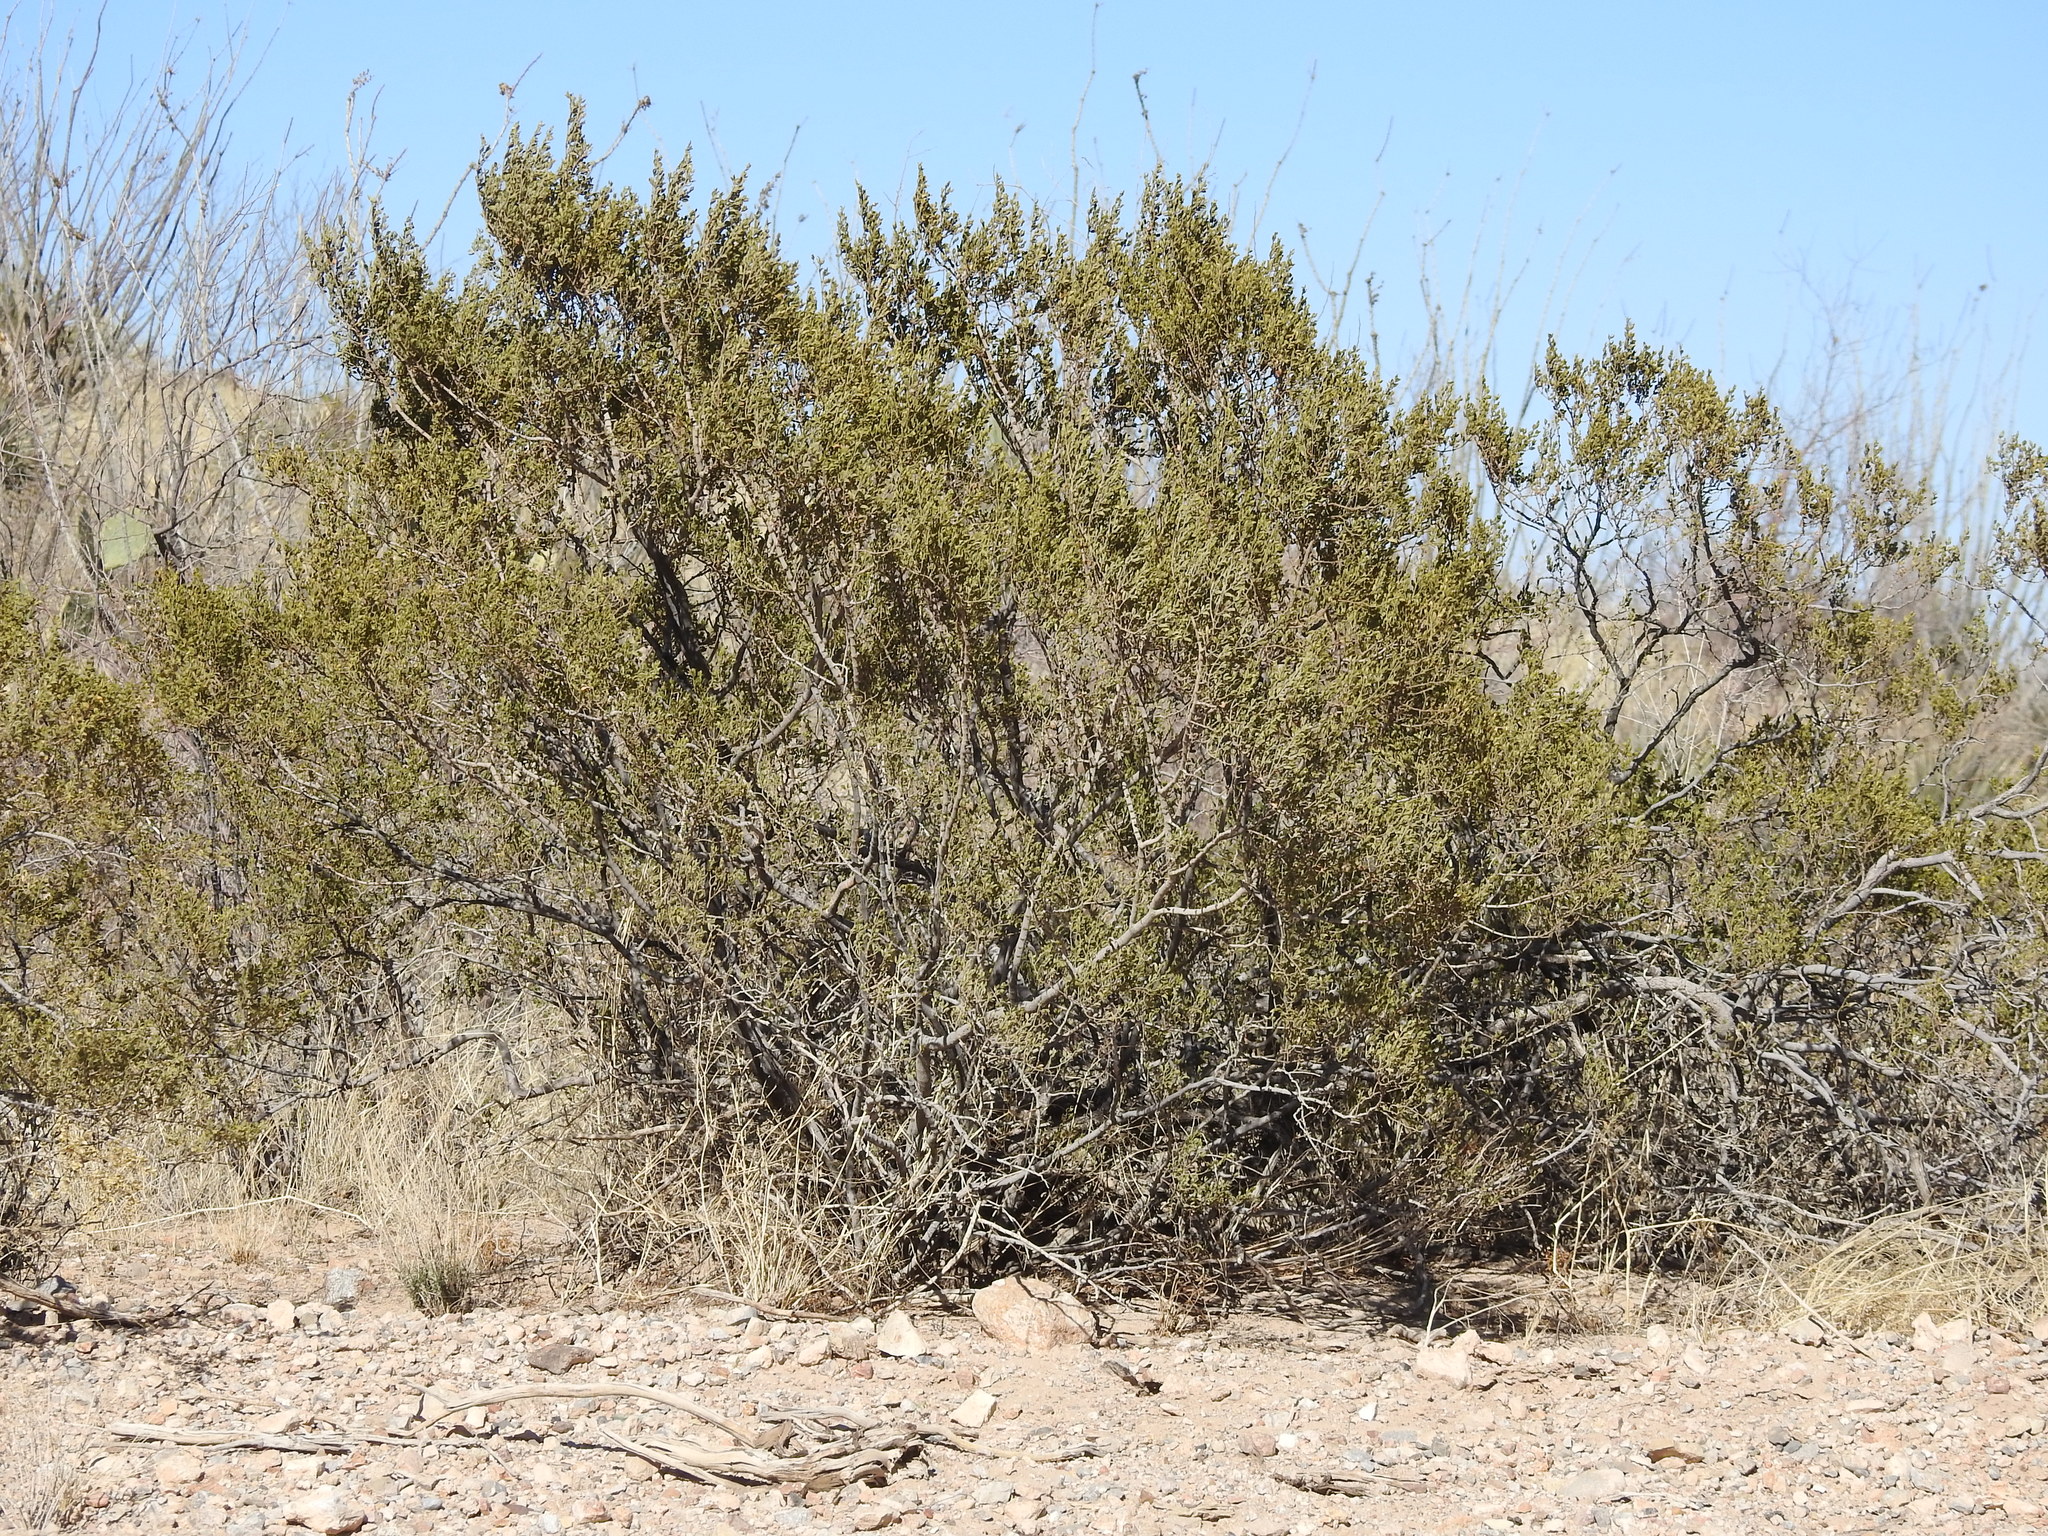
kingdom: Plantae
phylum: Tracheophyta
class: Magnoliopsida
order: Zygophyllales
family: Zygophyllaceae
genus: Larrea
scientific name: Larrea tridentata
